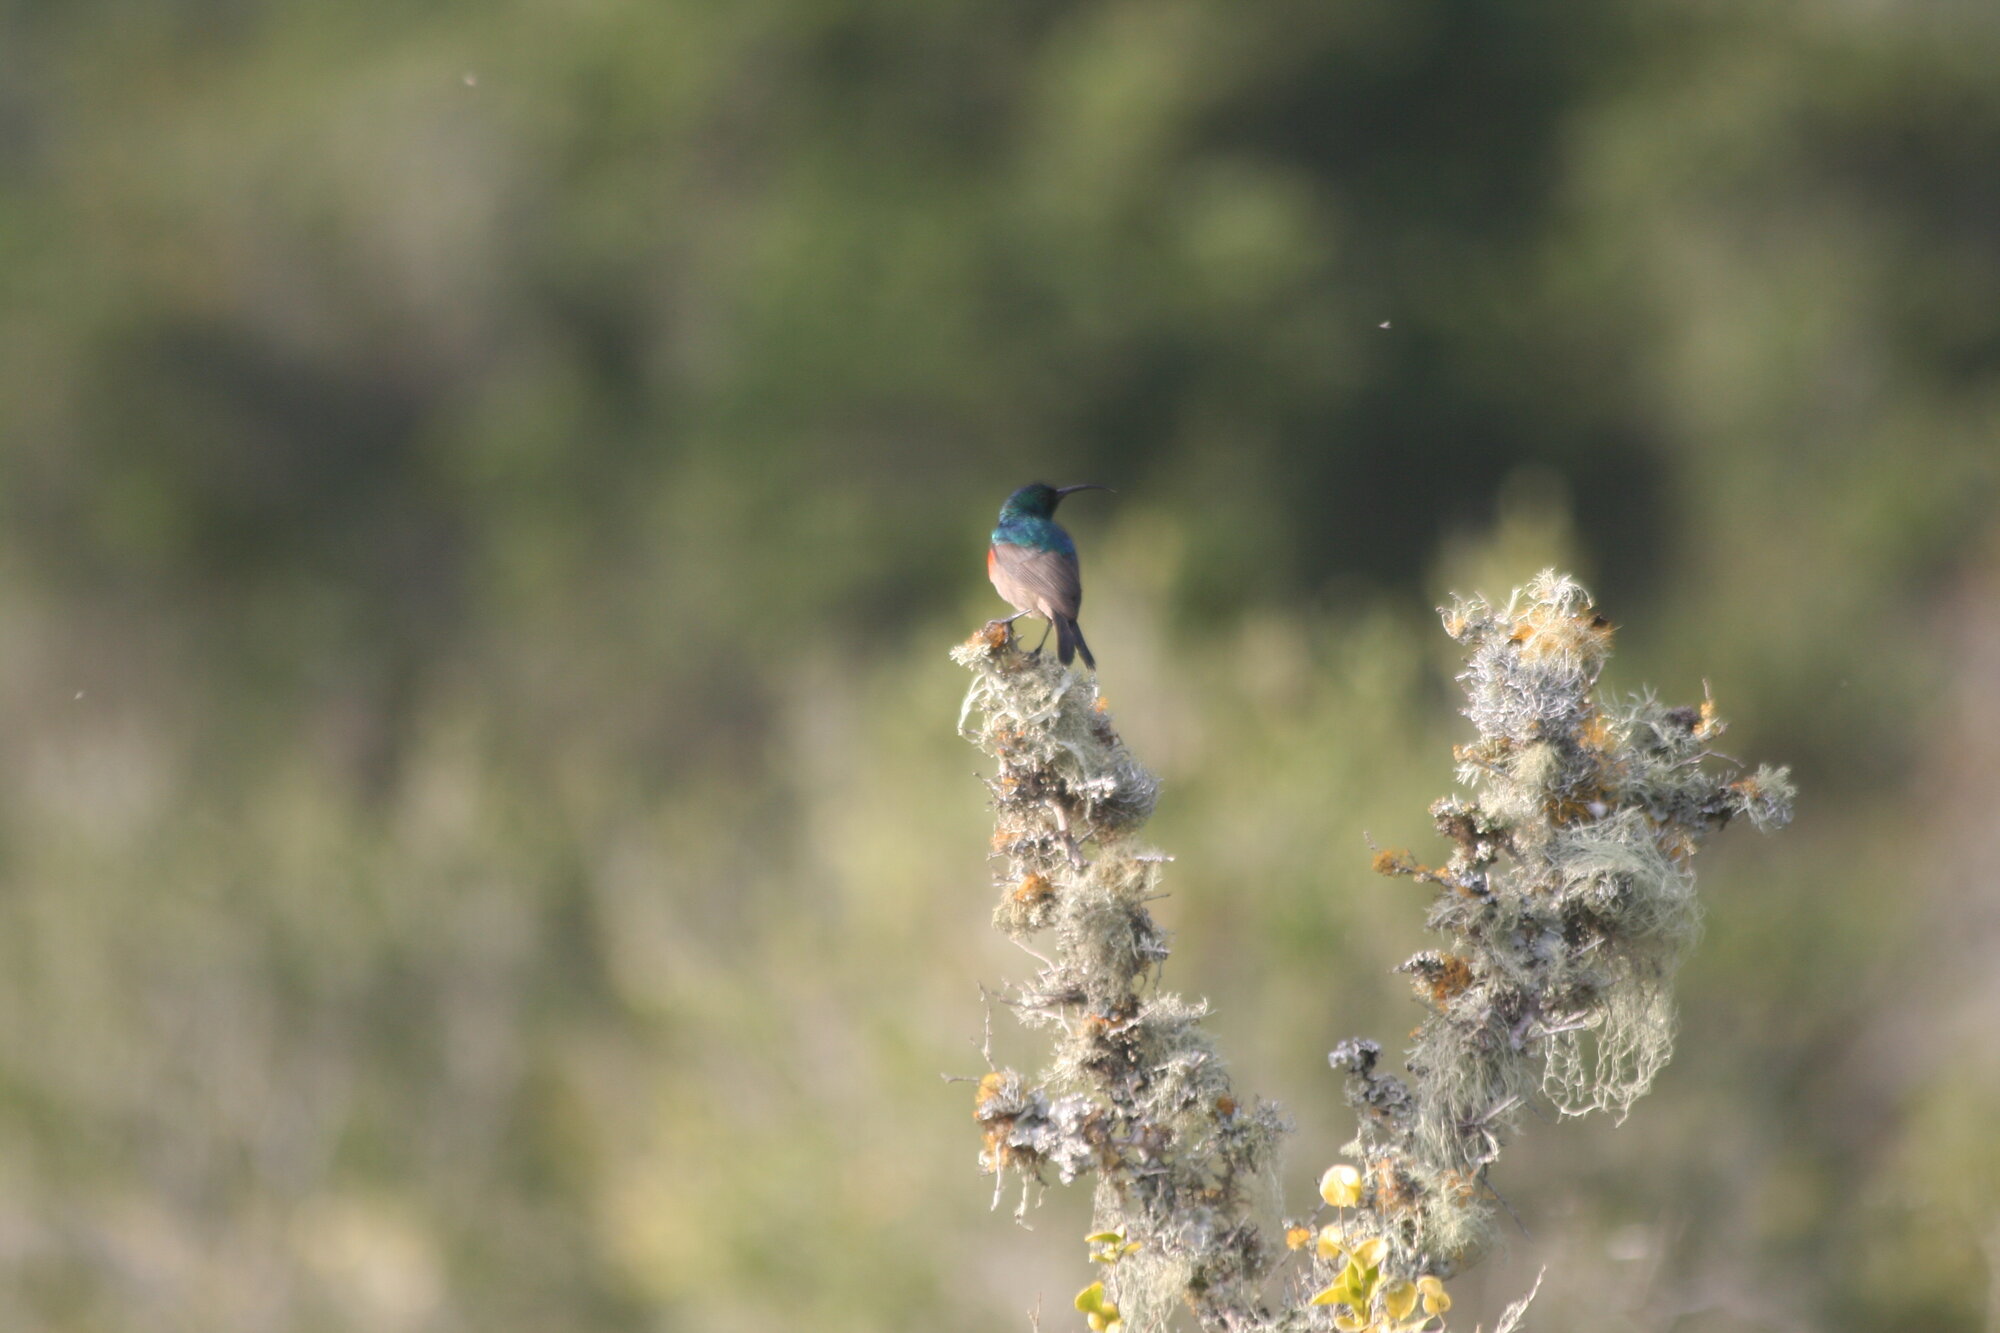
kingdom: Animalia
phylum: Chordata
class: Aves
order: Passeriformes
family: Nectariniidae
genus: Cinnyris
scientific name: Cinnyris afer
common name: Greater double-collared sunbird
